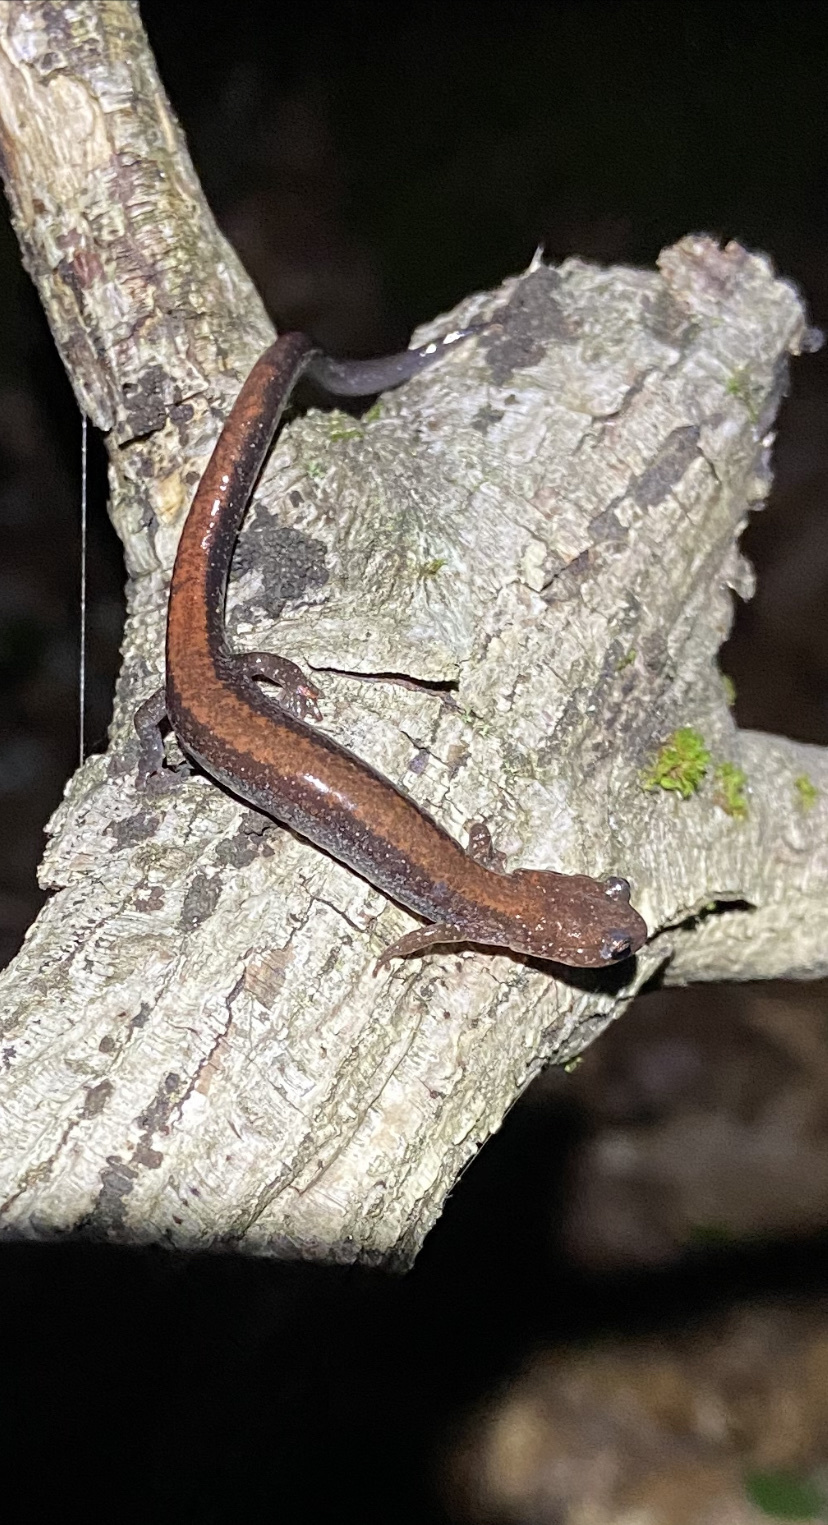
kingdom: Animalia
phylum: Chordata
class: Amphibia
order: Caudata
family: Plethodontidae
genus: Plethodon
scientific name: Plethodon cinereus
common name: Redback salamander
